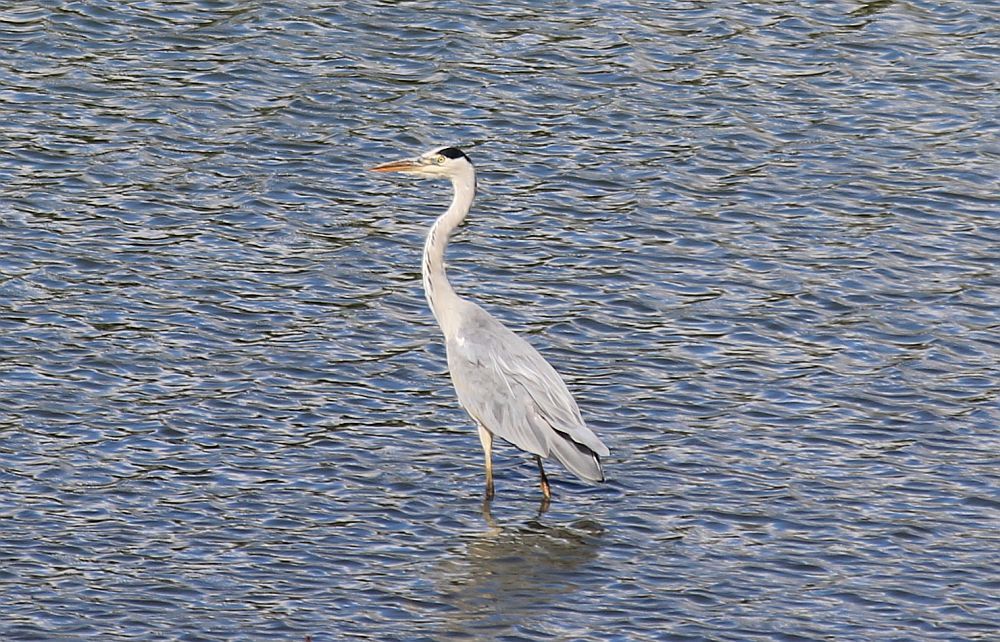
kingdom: Animalia
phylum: Chordata
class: Aves
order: Pelecaniformes
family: Ardeidae
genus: Ardea
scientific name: Ardea cinerea
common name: Grey heron
